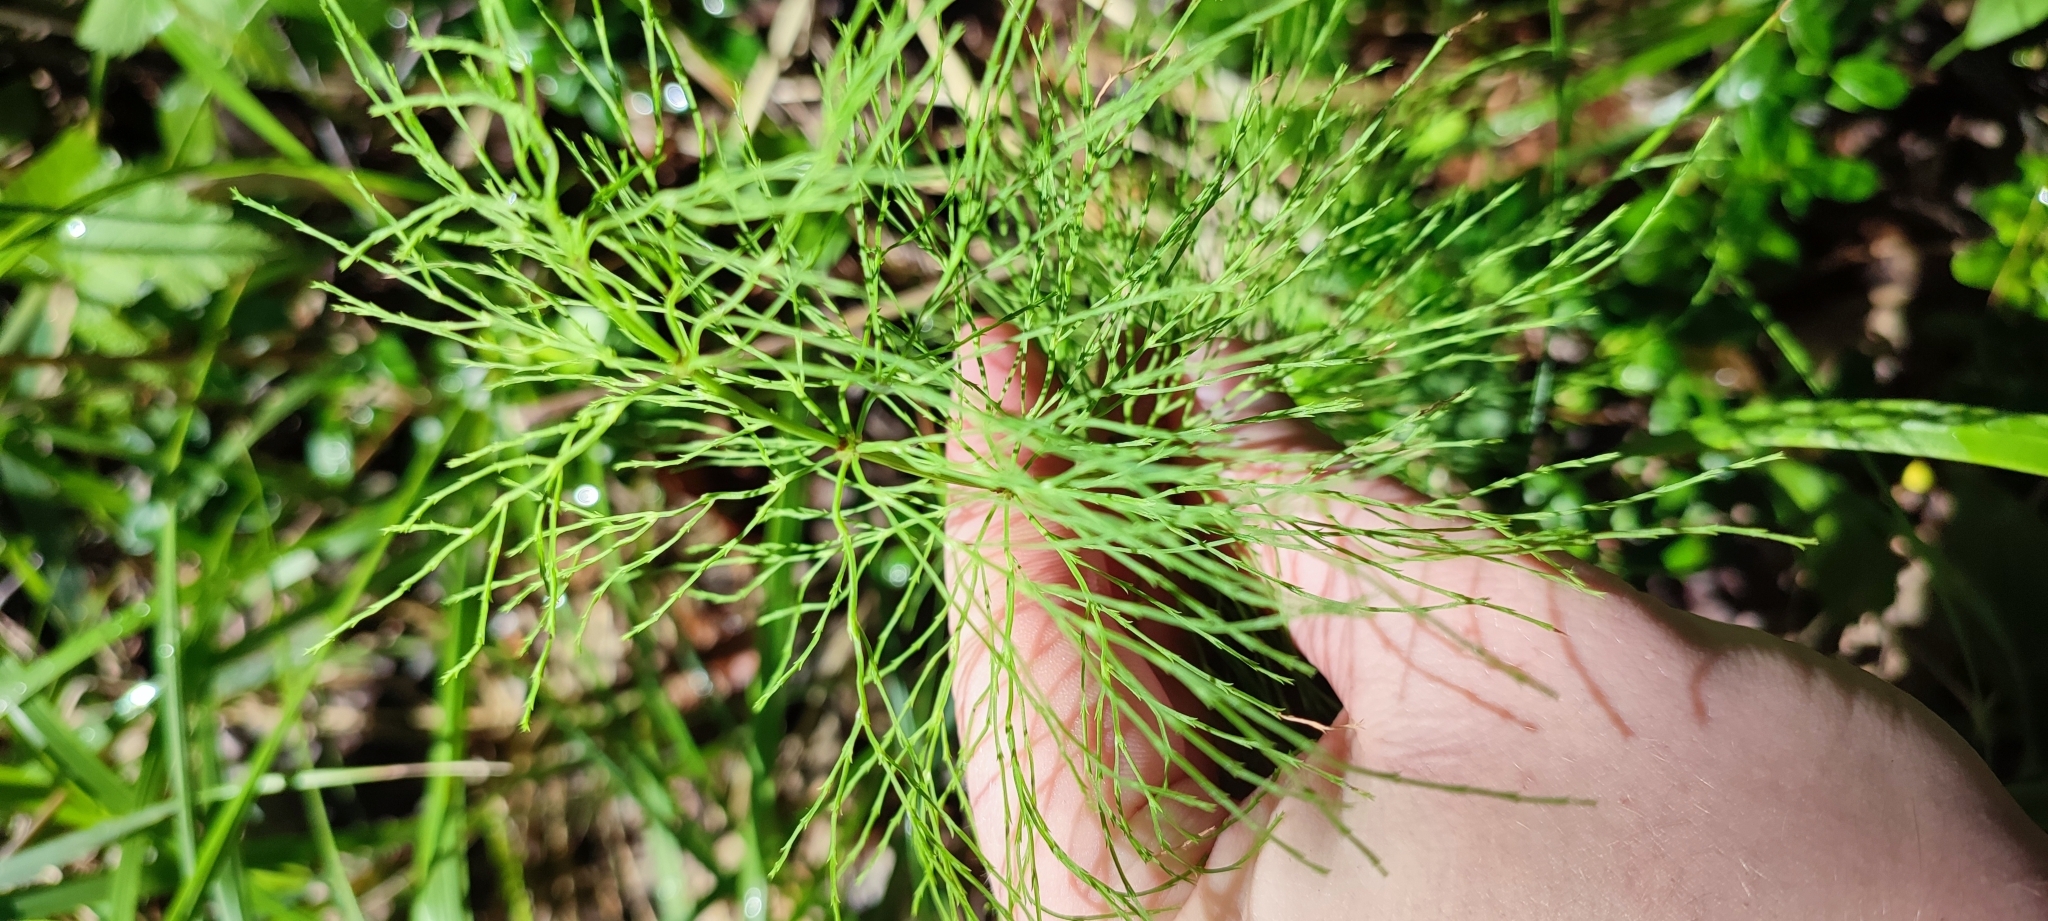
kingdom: Plantae
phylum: Tracheophyta
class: Polypodiopsida
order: Equisetales
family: Equisetaceae
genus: Equisetum
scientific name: Equisetum sylvaticum
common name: Wood horsetail
